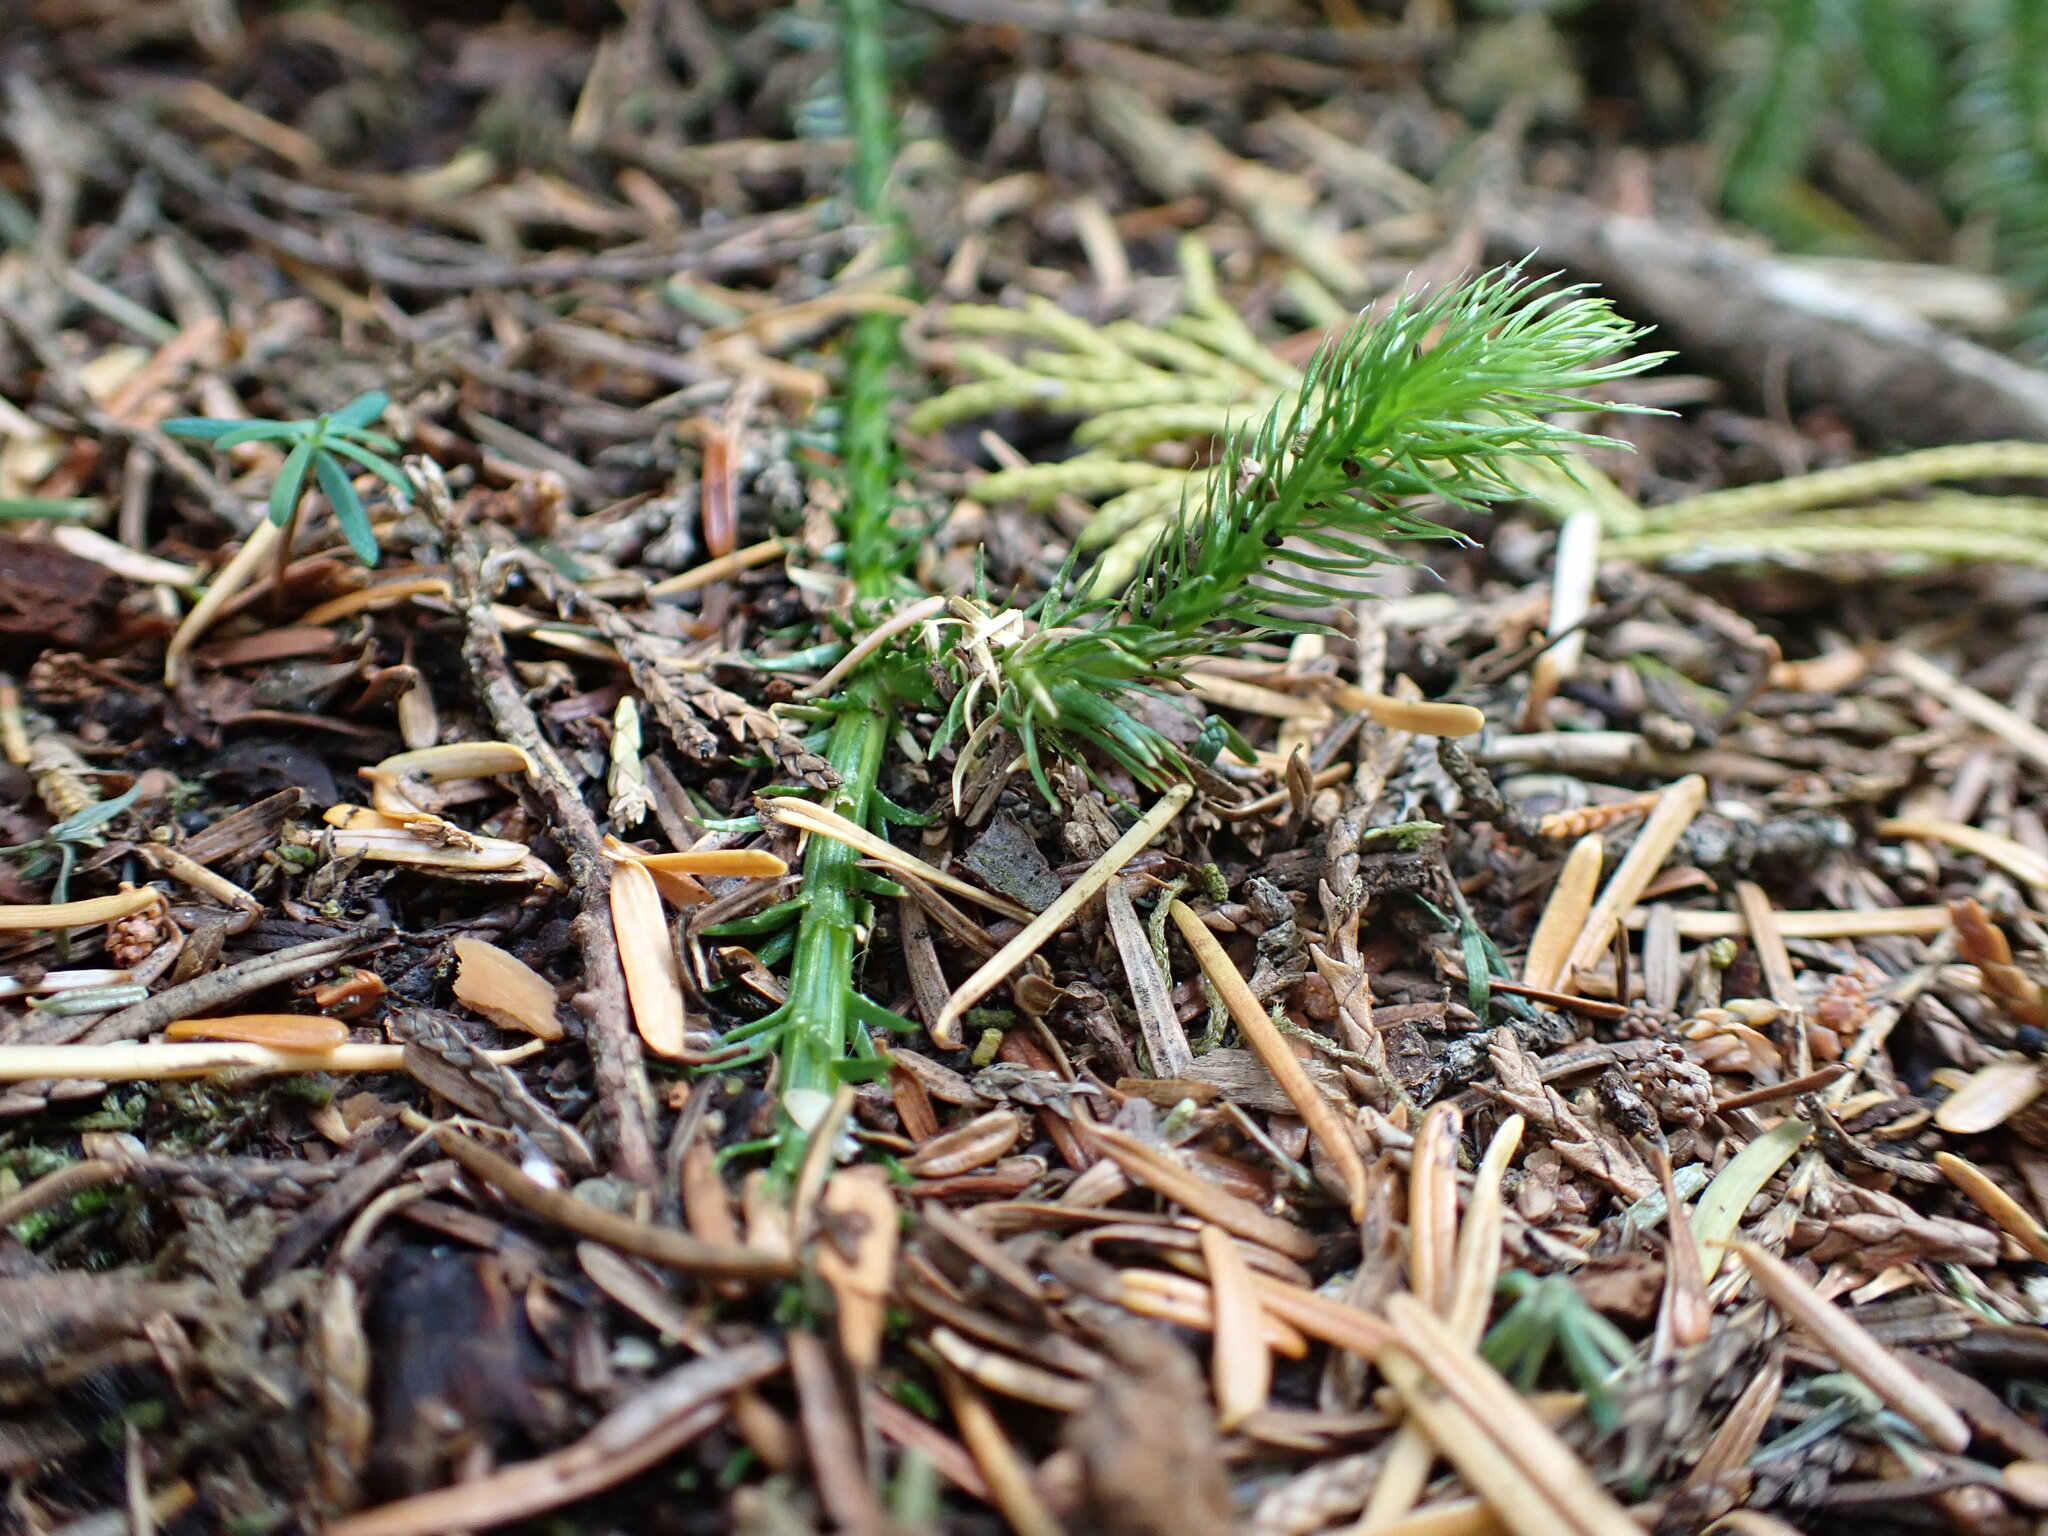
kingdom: Plantae
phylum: Tracheophyta
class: Lycopodiopsida
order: Lycopodiales
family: Lycopodiaceae
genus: Lycopodium
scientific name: Lycopodium clavatum
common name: Stag's-horn clubmoss
